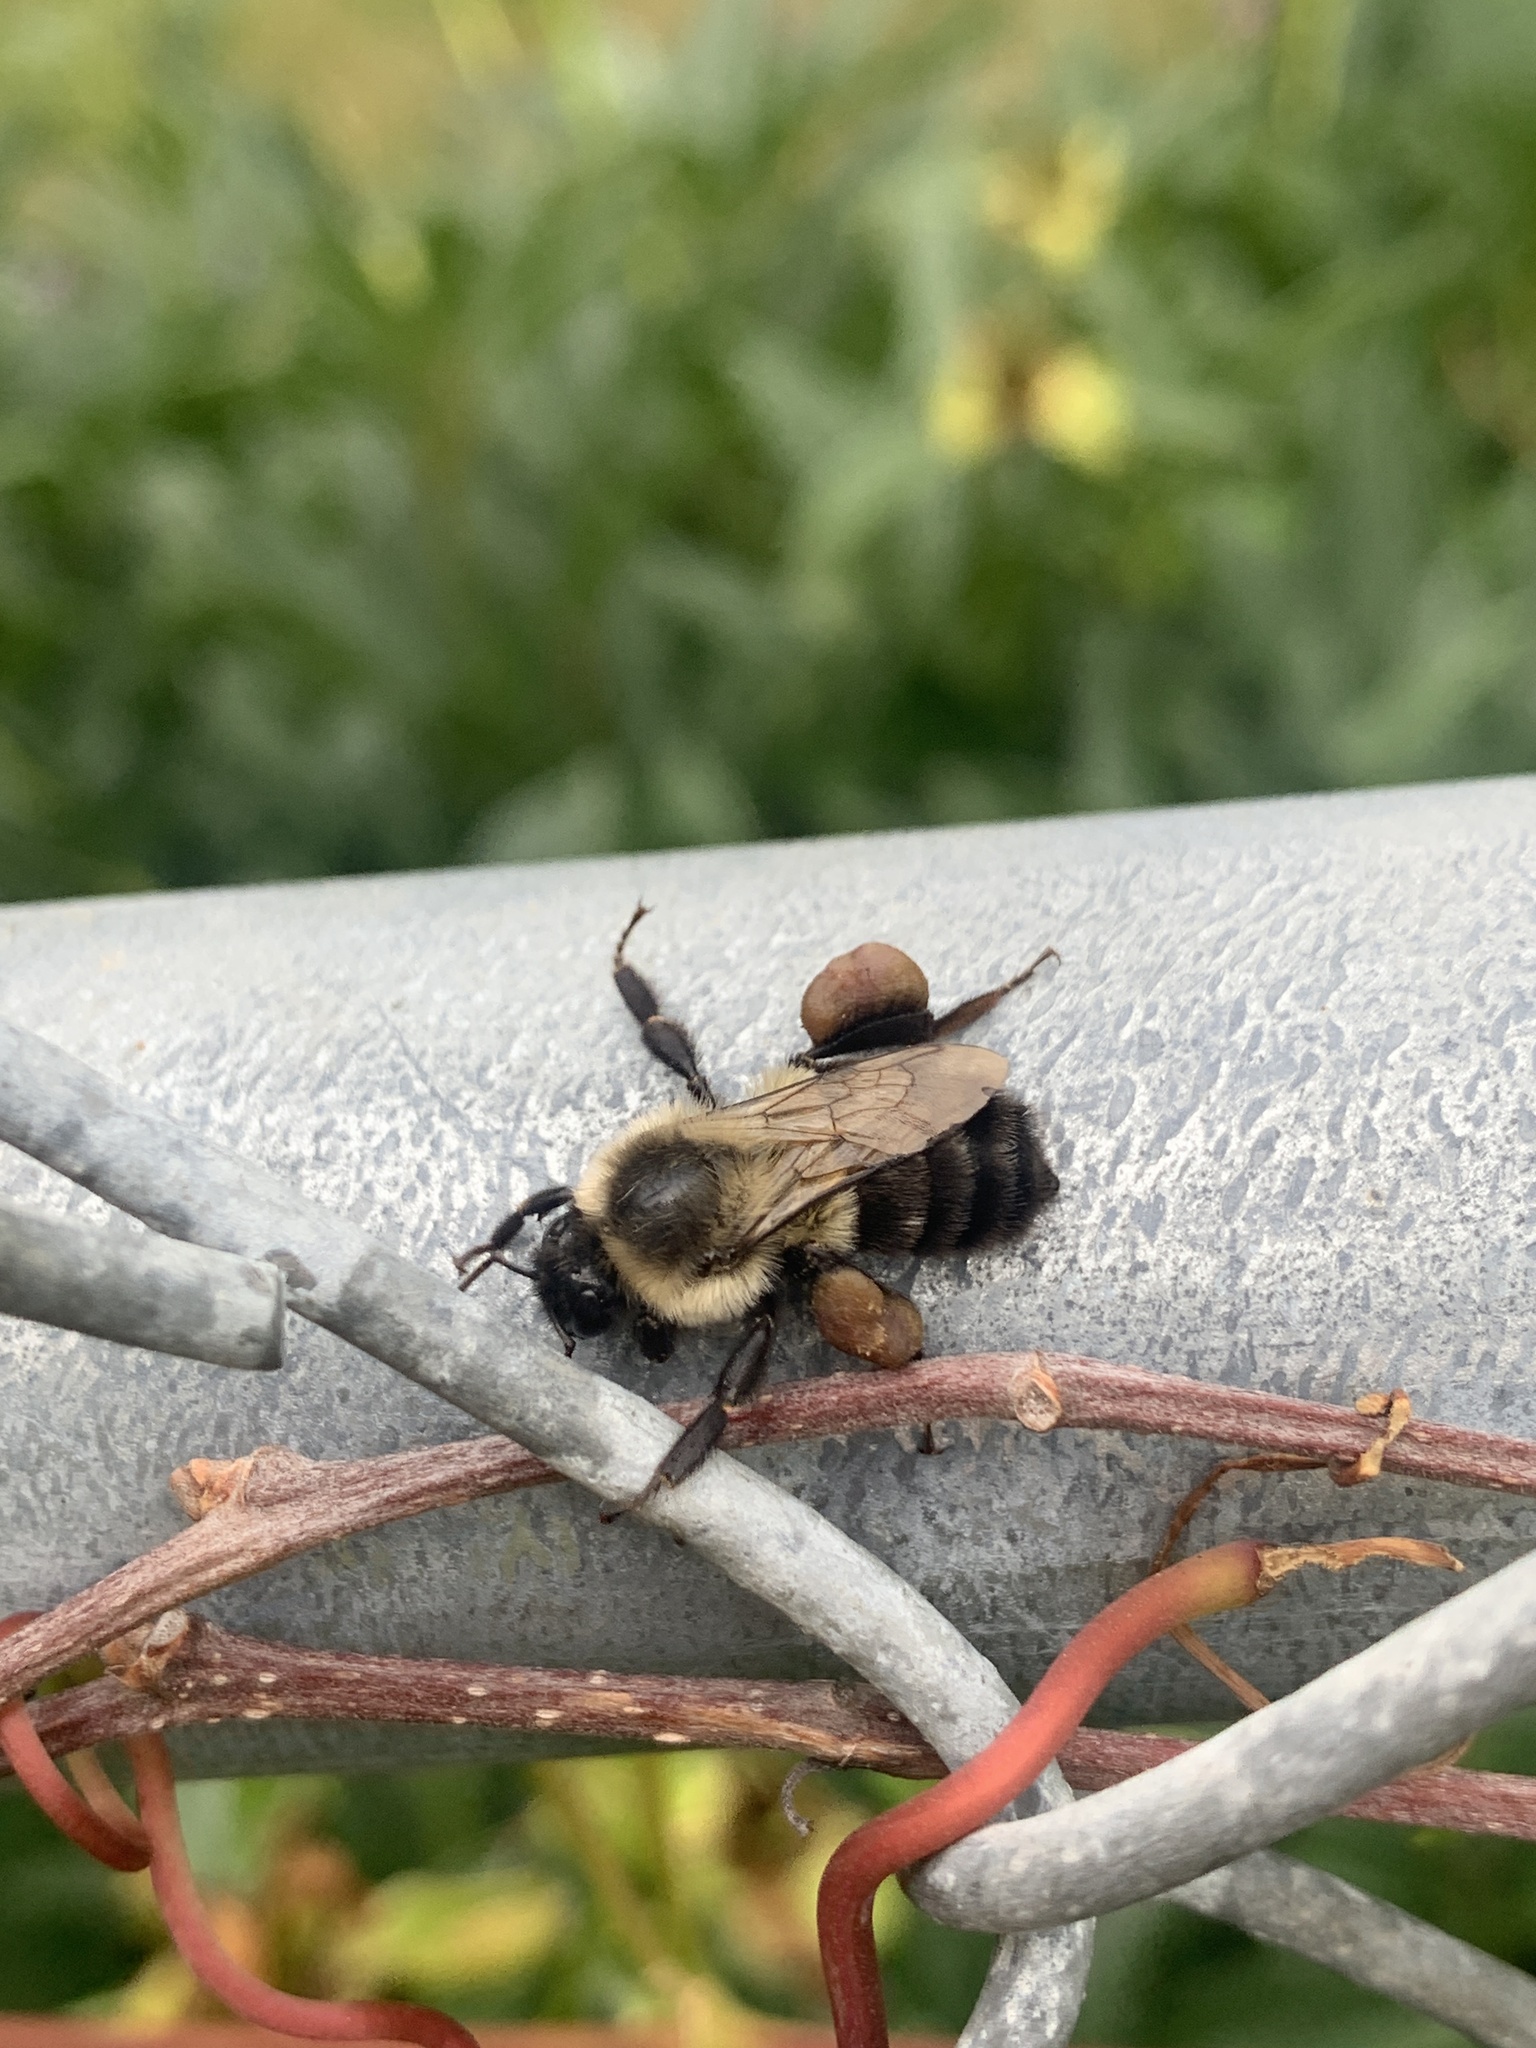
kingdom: Animalia
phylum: Arthropoda
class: Insecta
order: Hymenoptera
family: Apidae
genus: Bombus
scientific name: Bombus impatiens
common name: Common eastern bumble bee
